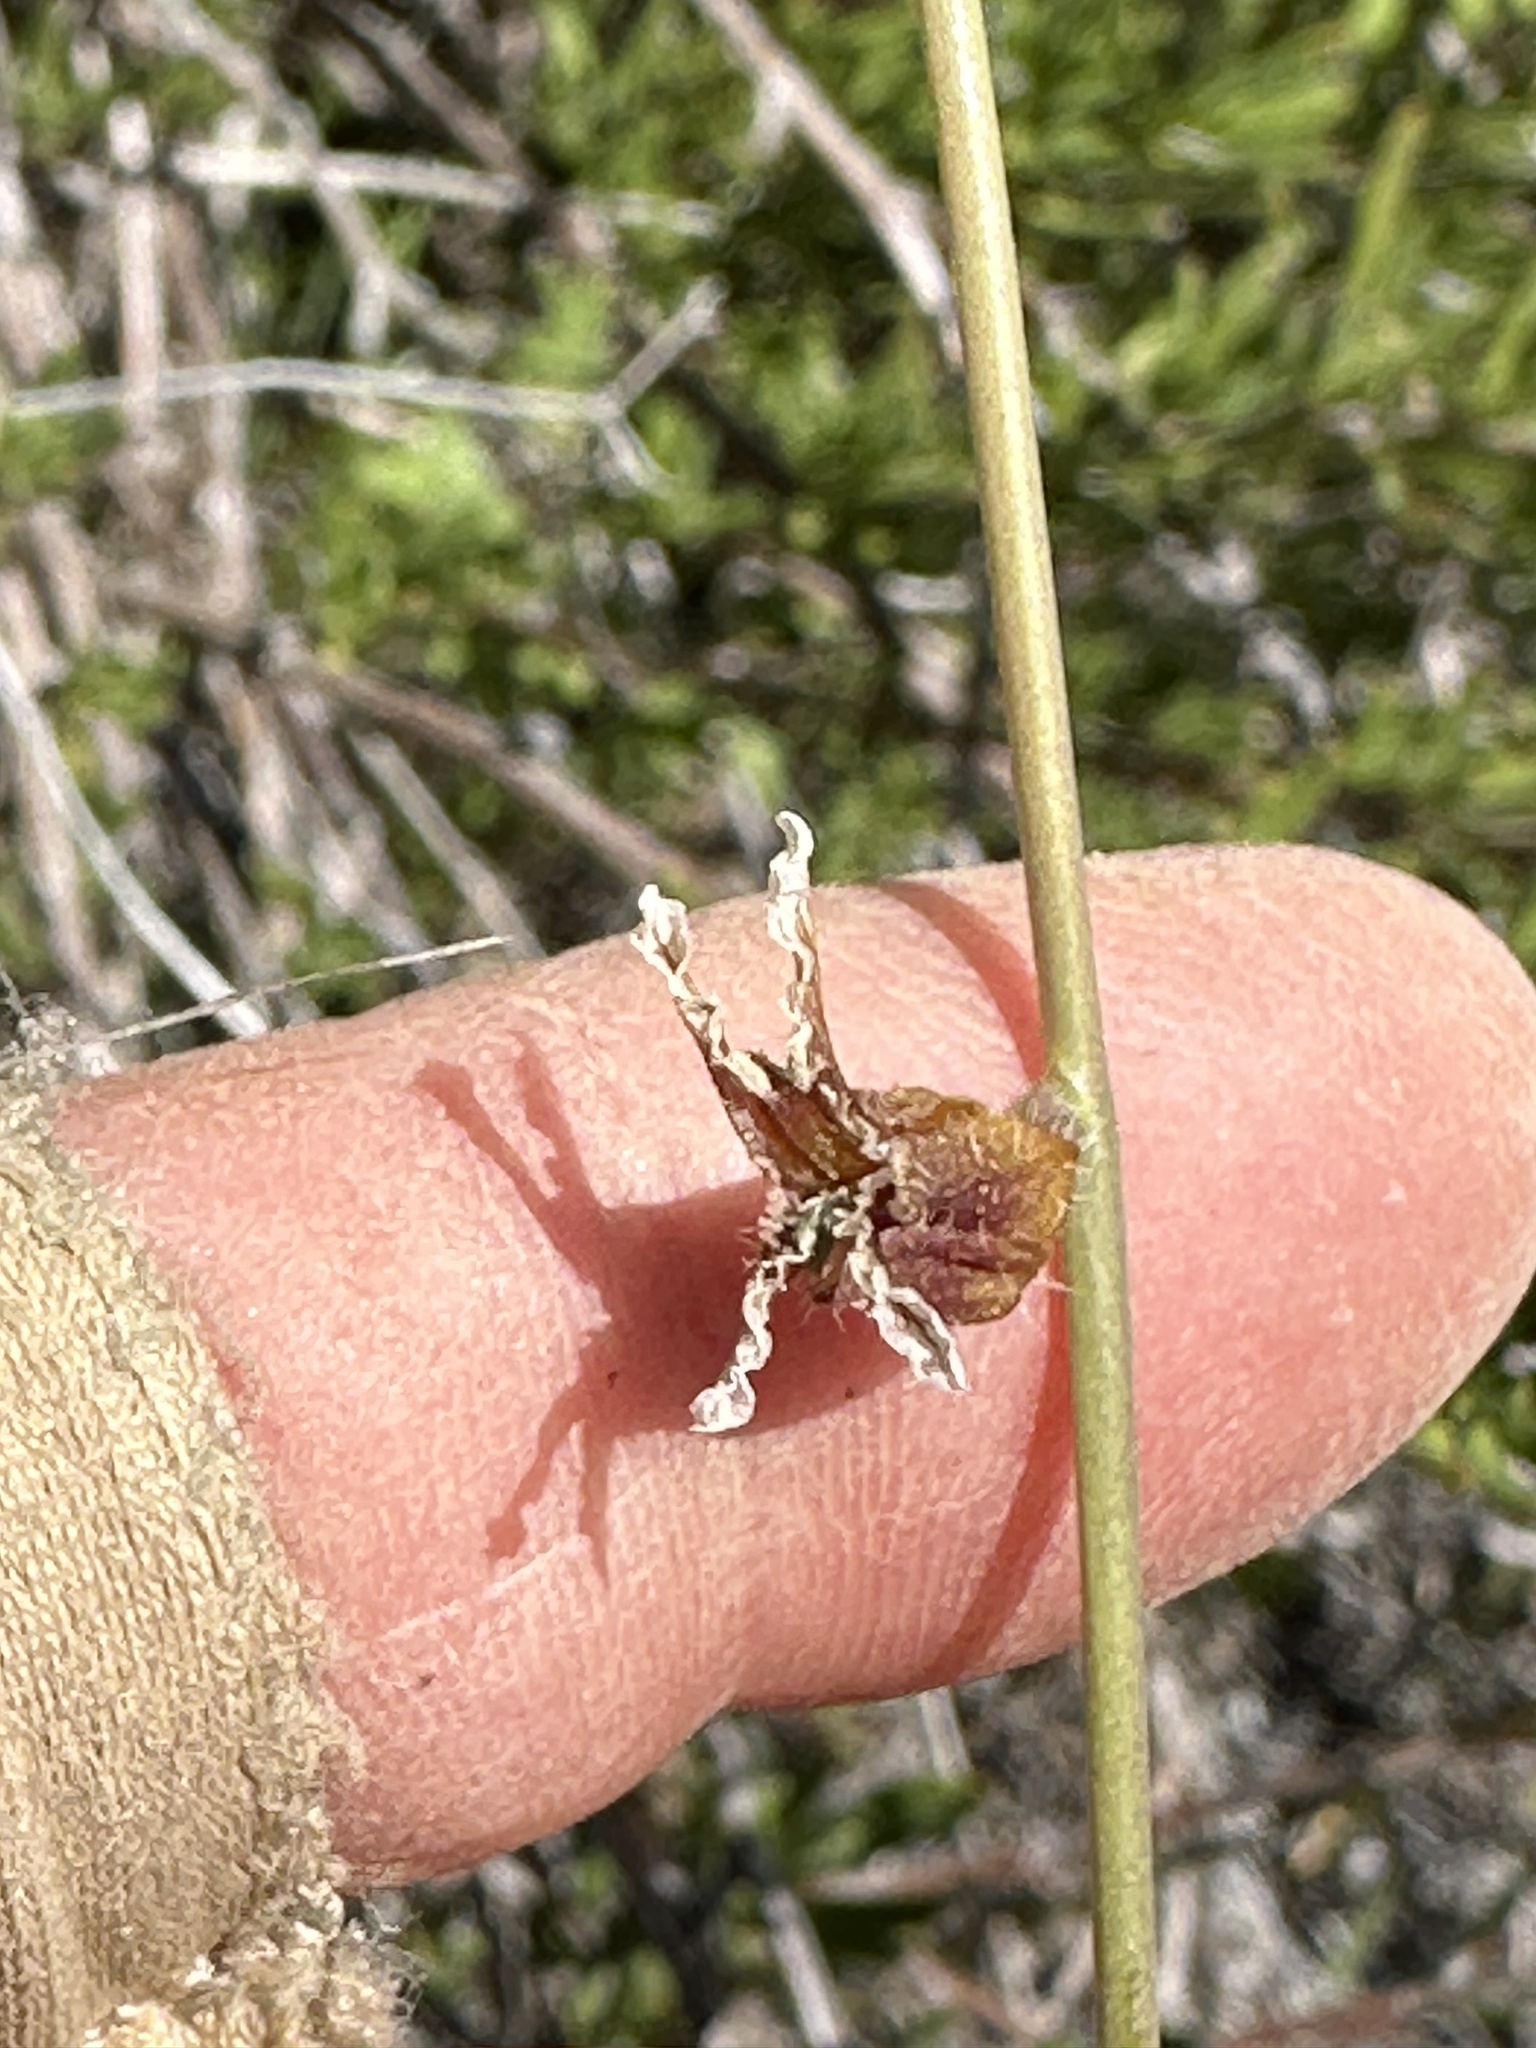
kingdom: Plantae
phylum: Tracheophyta
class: Magnoliopsida
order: Brassicales
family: Brassicaceae
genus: Streptanthus
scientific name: Streptanthus coulteri
